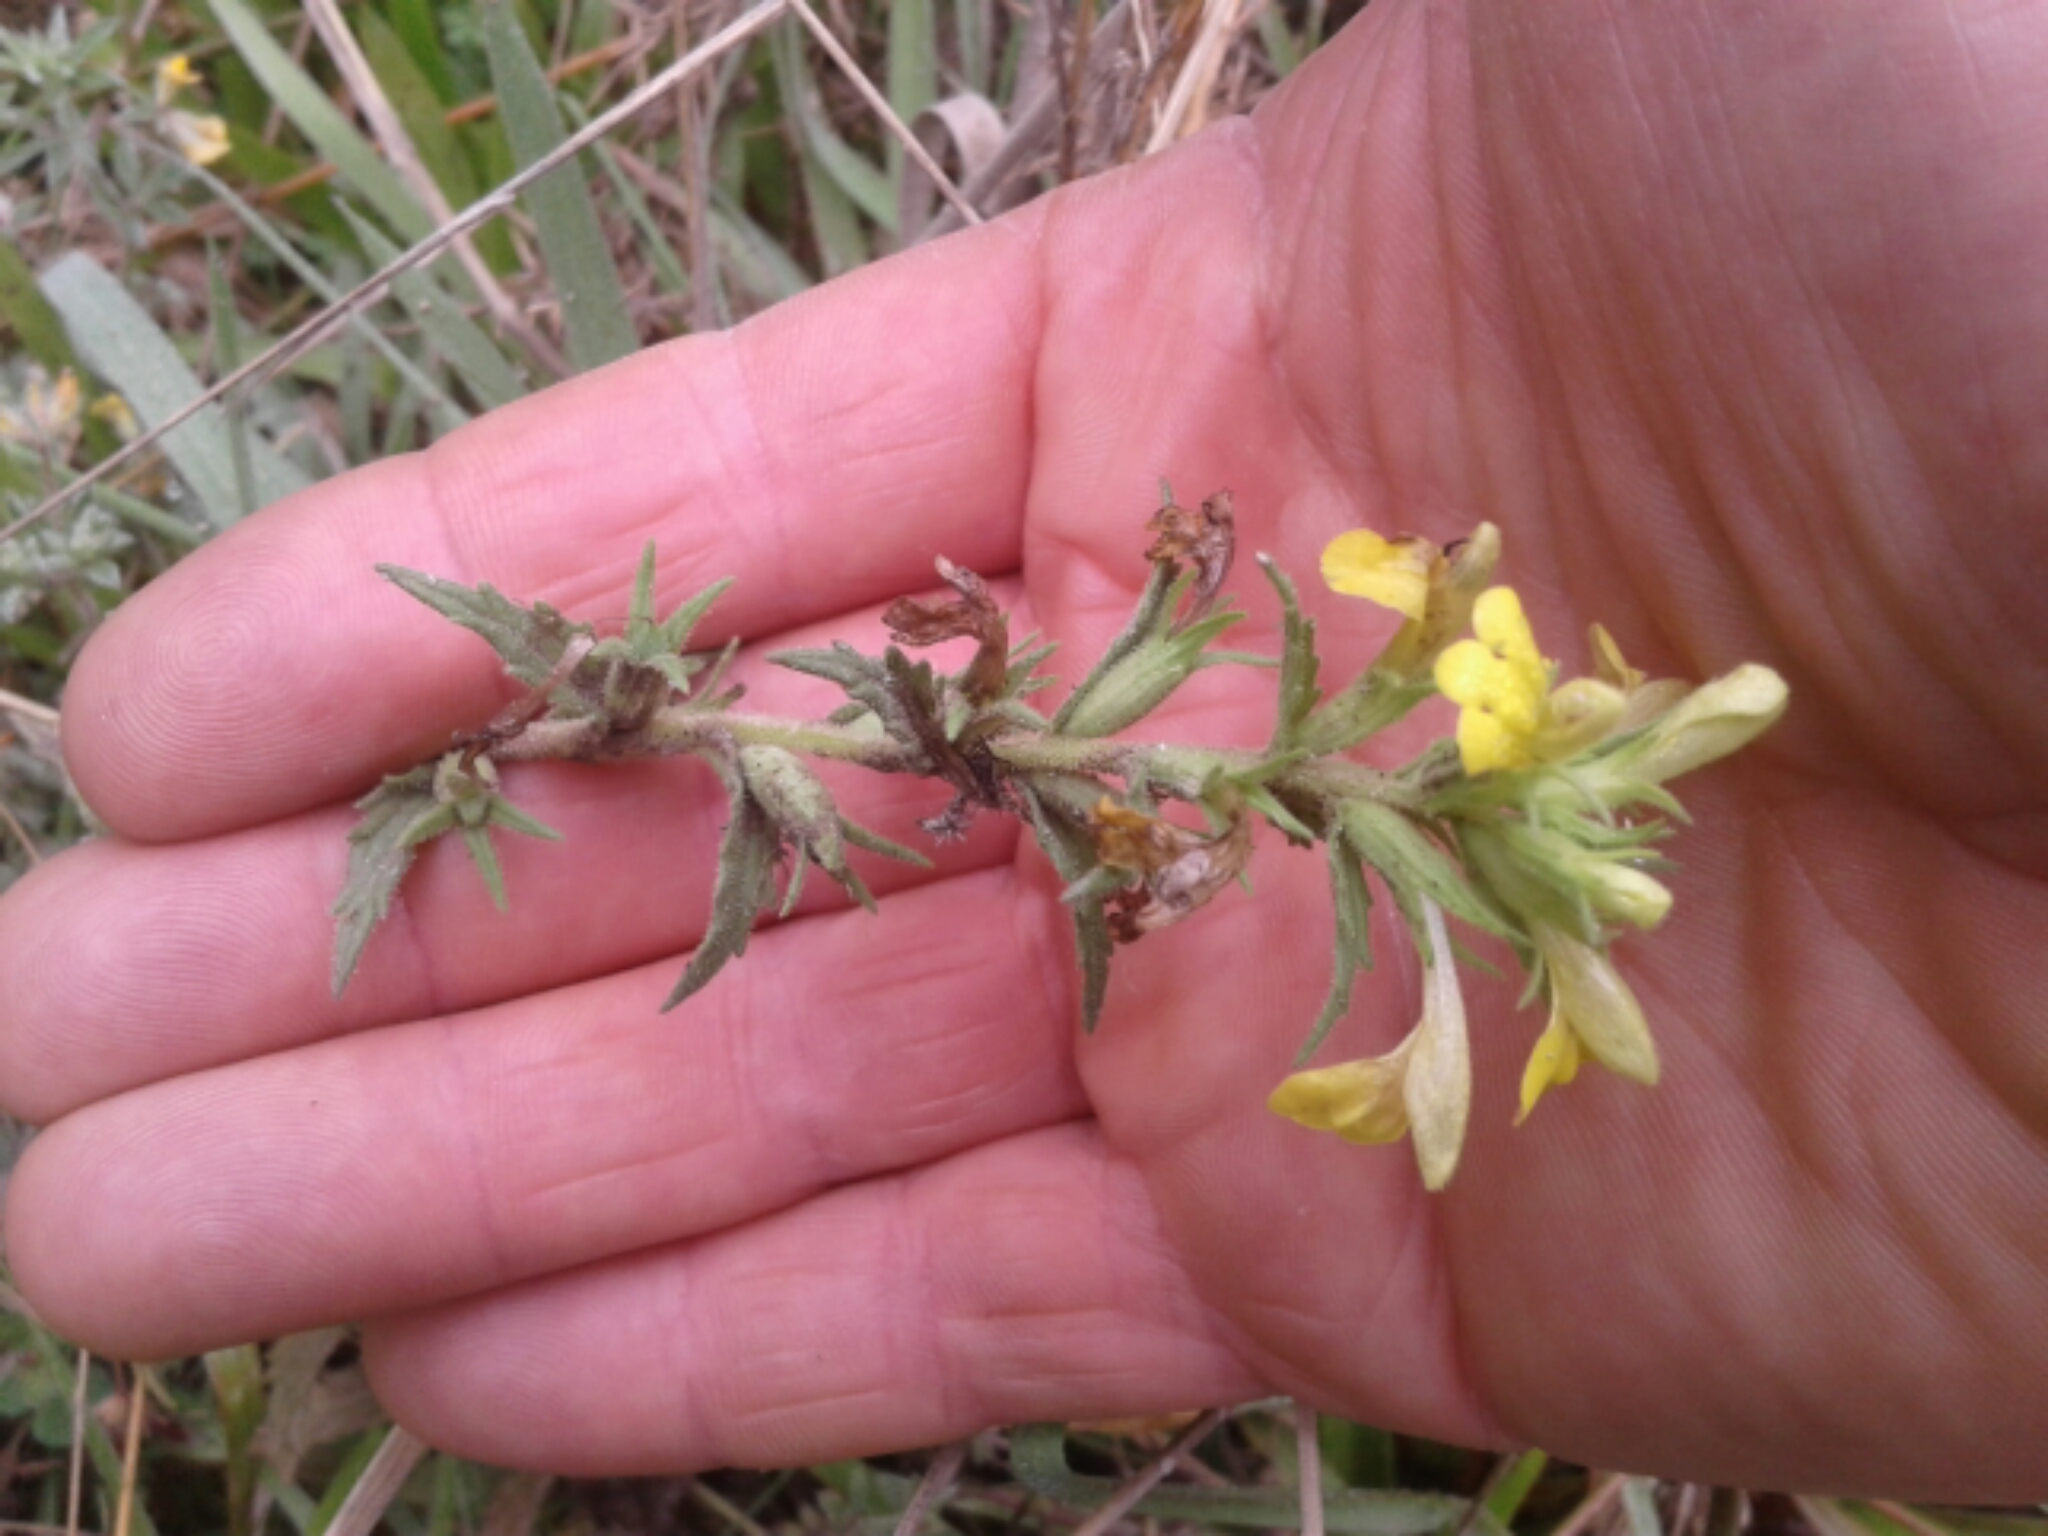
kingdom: Plantae
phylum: Tracheophyta
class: Magnoliopsida
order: Lamiales
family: Orobanchaceae
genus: Bellardia
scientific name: Bellardia viscosa
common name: Sticky parentucellia
